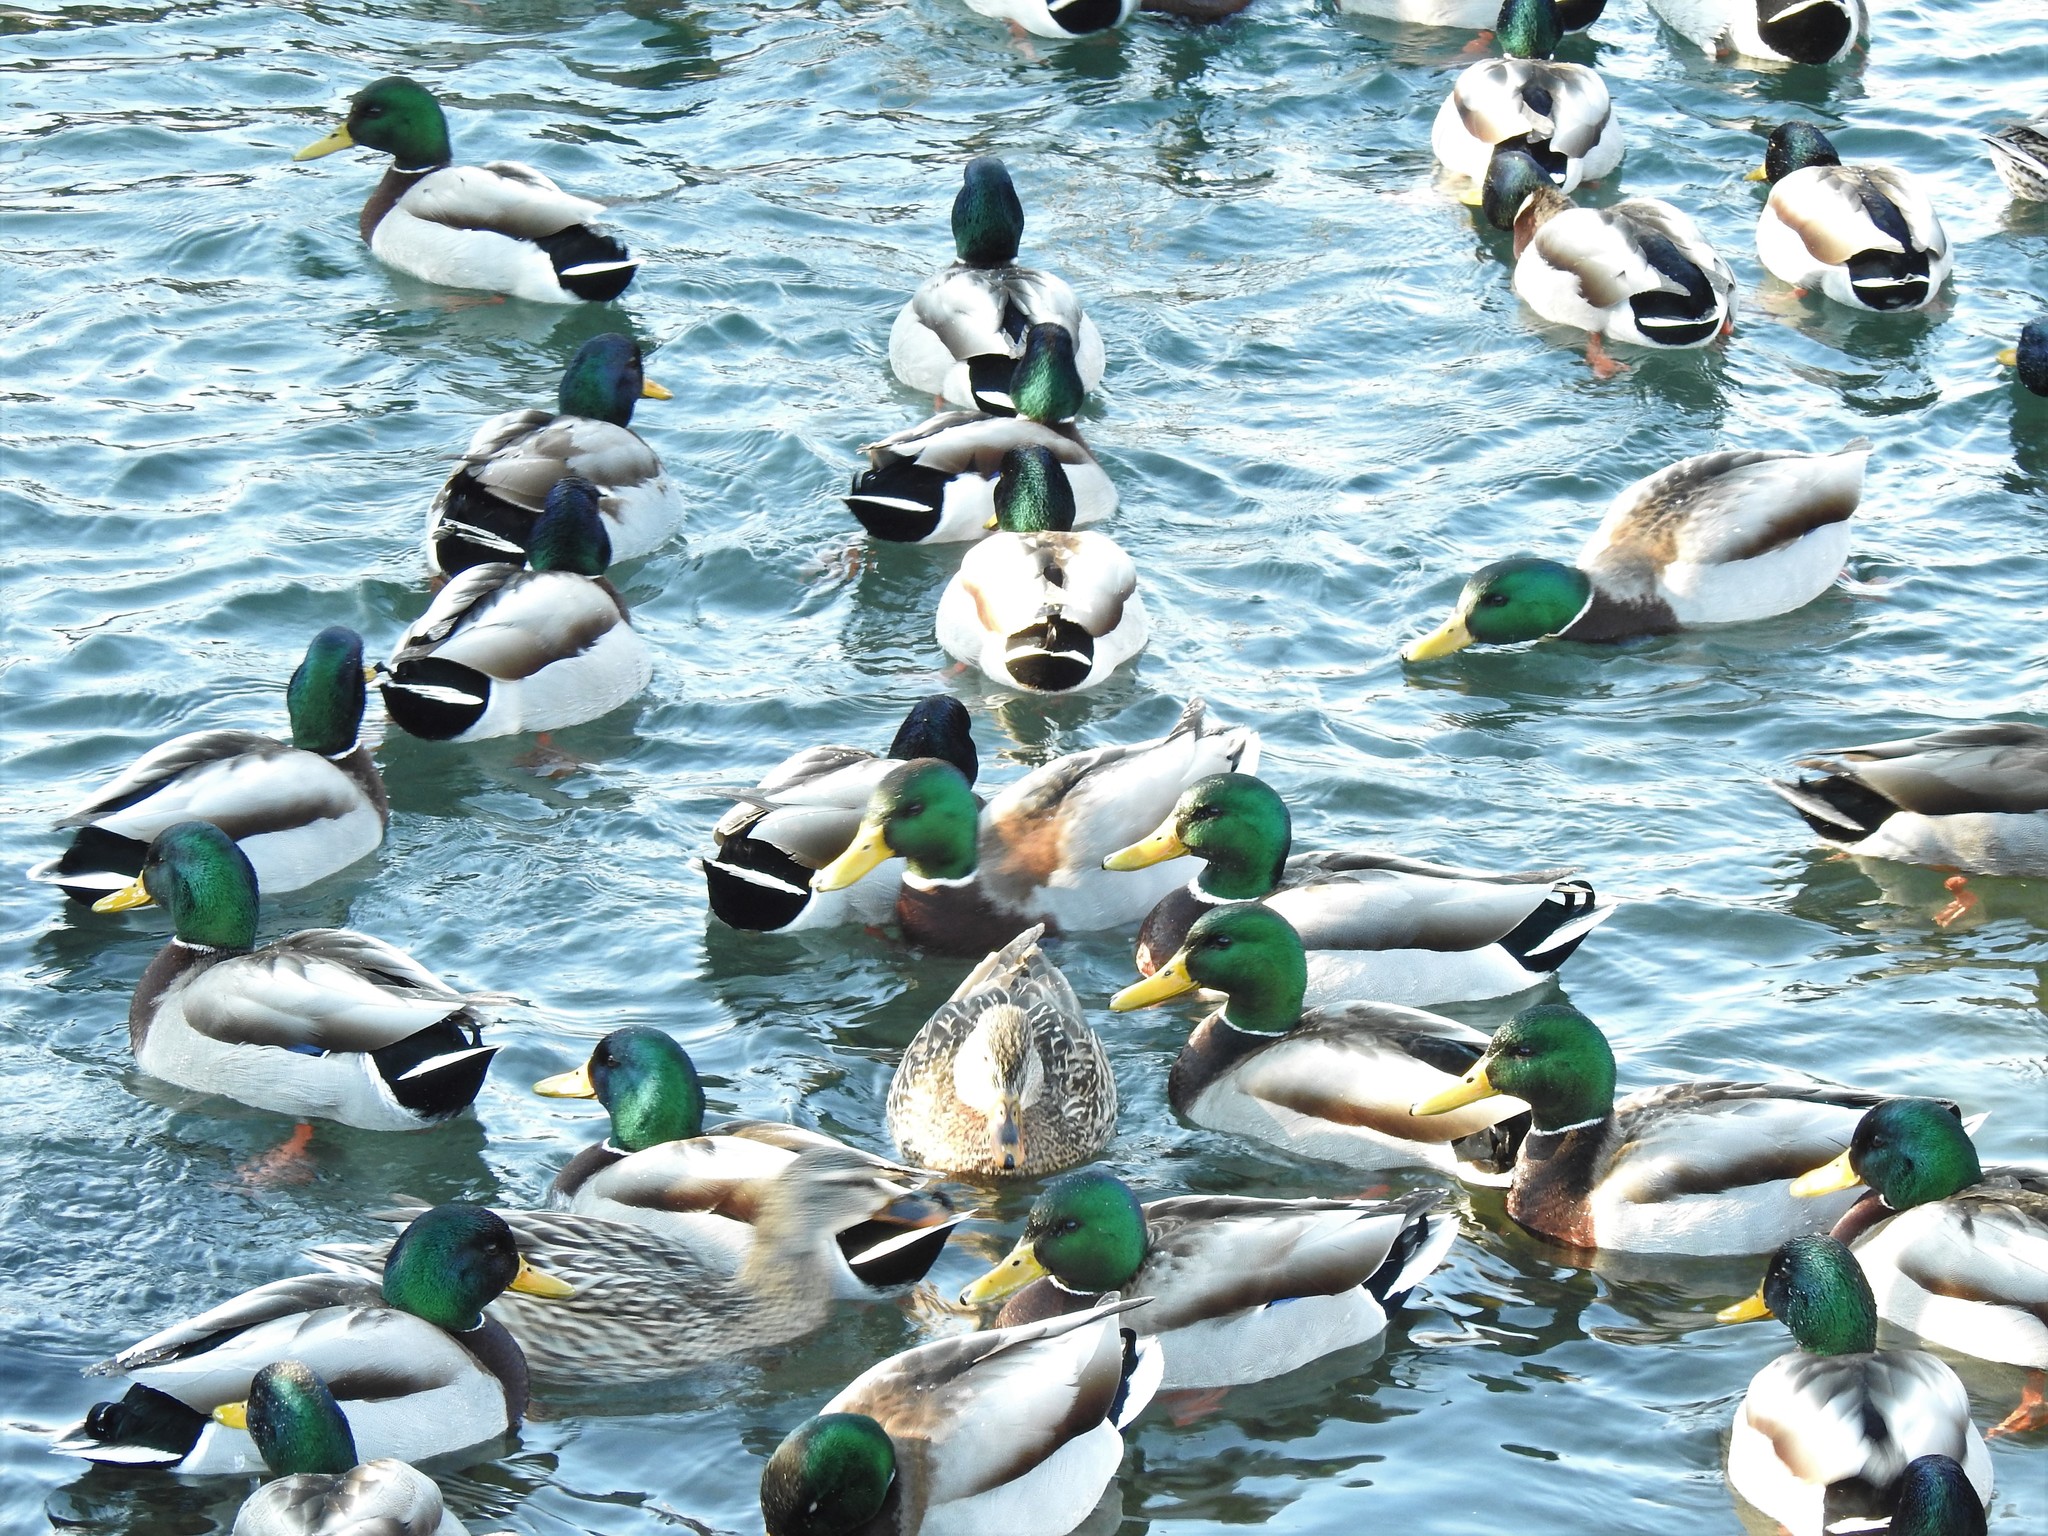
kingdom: Animalia
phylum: Chordata
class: Aves
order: Anseriformes
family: Anatidae
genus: Anas
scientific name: Anas platyrhynchos
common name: Mallard
